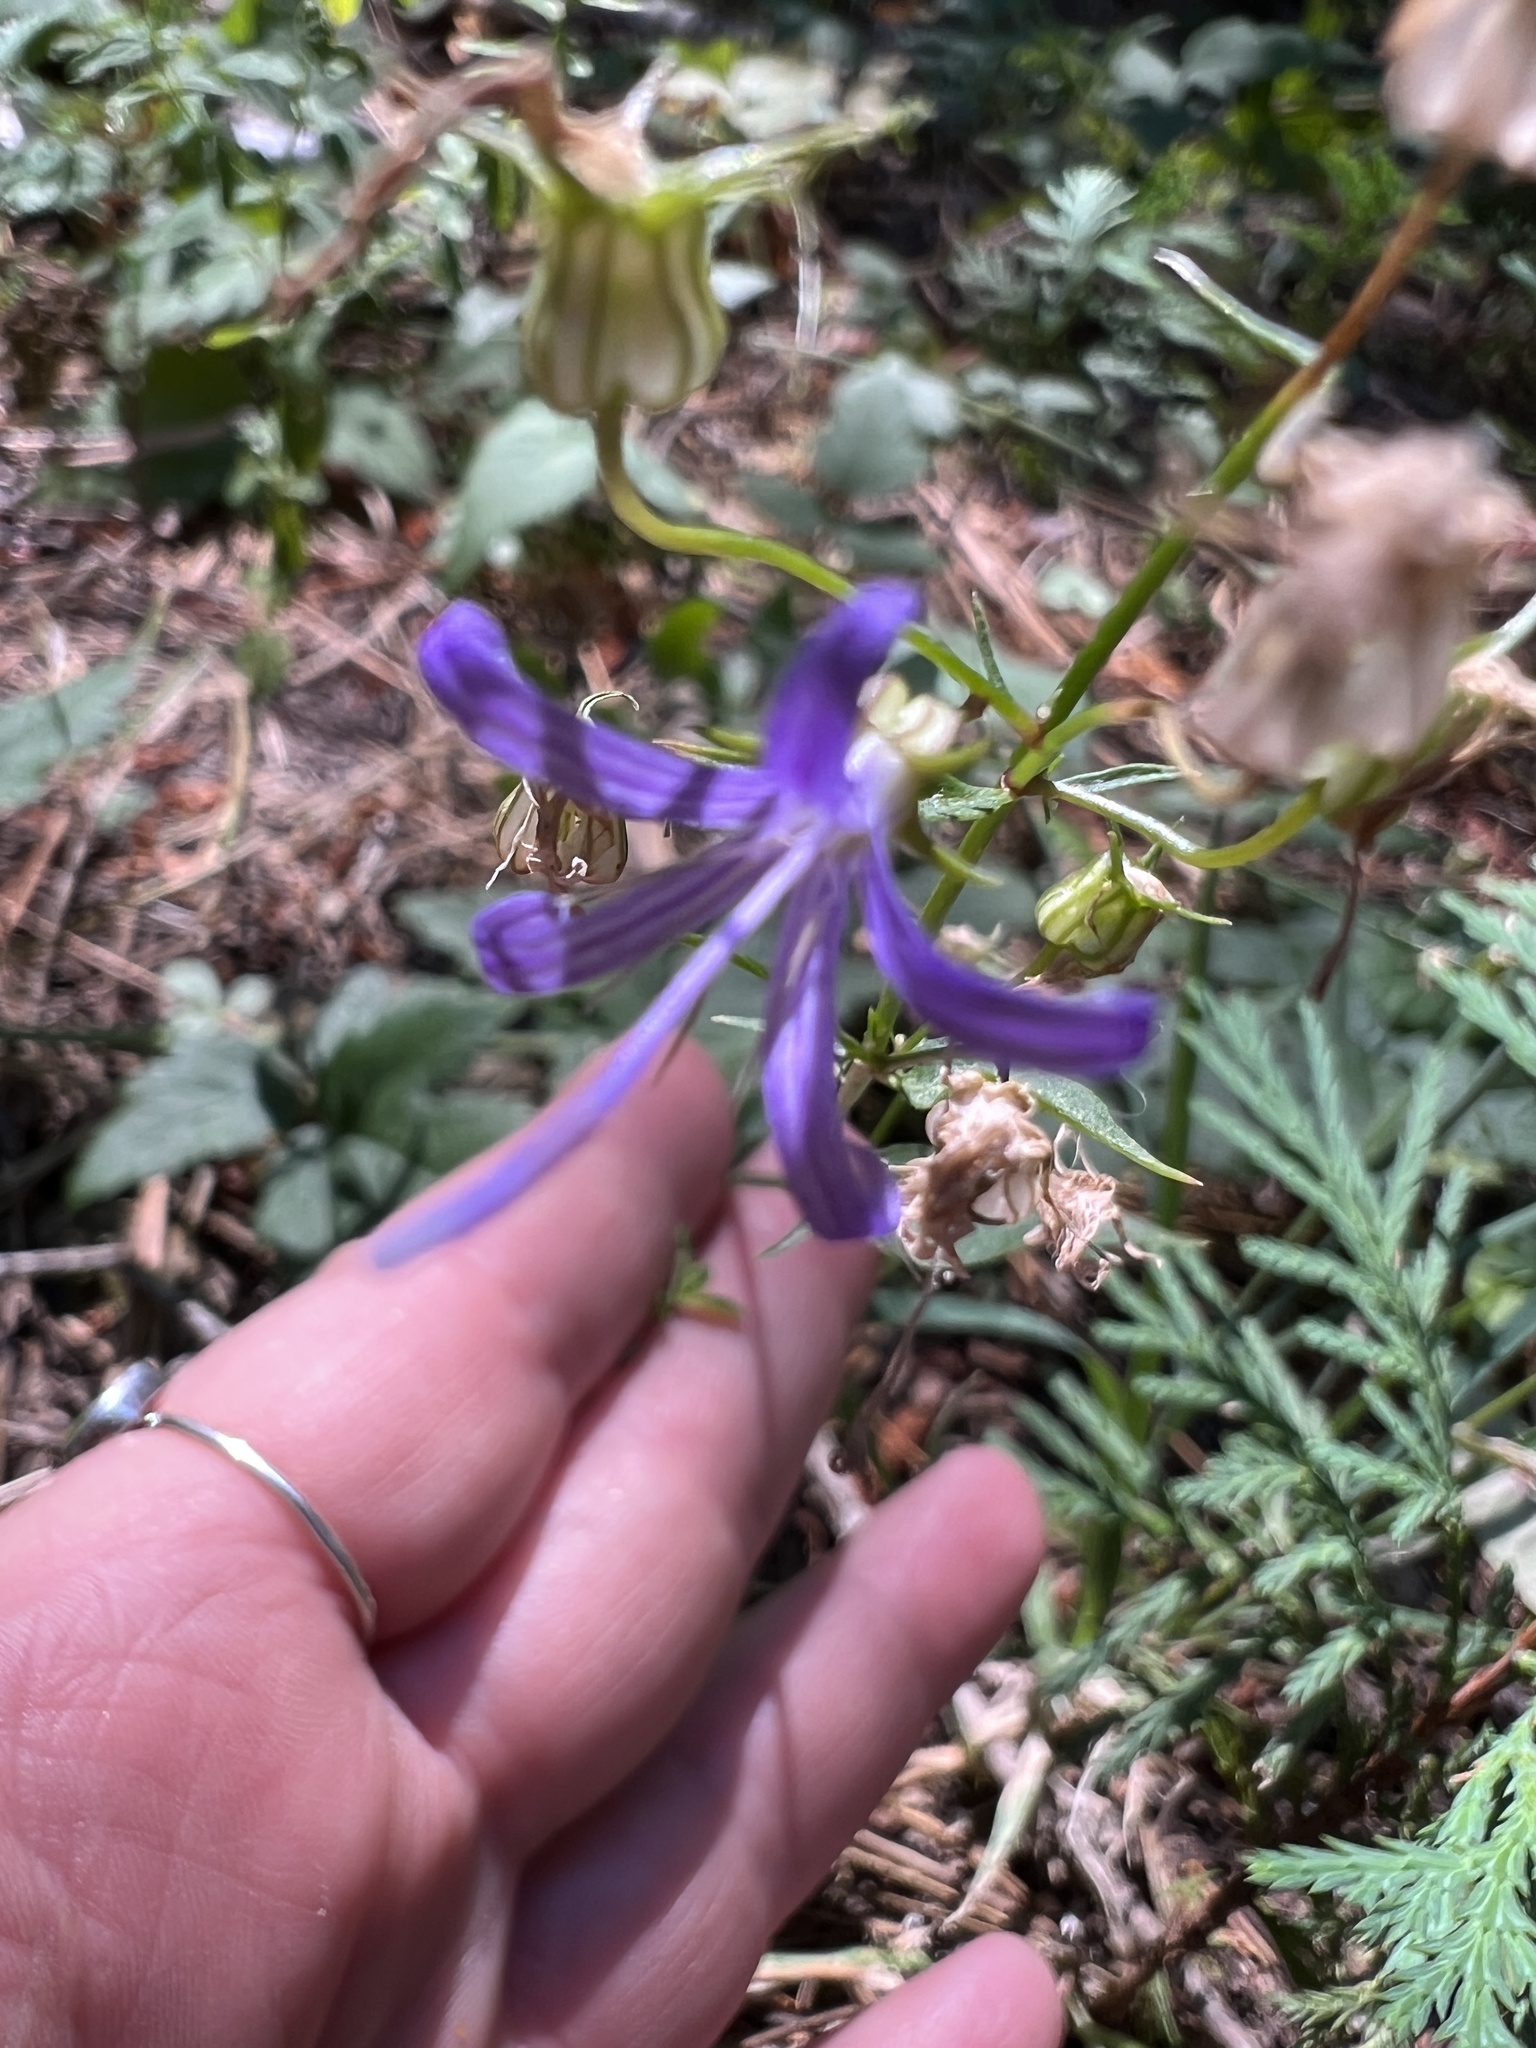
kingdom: Plantae
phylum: Tracheophyta
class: Magnoliopsida
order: Asterales
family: Campanulaceae
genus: Smithiastrum
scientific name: Smithiastrum prenanthoides
